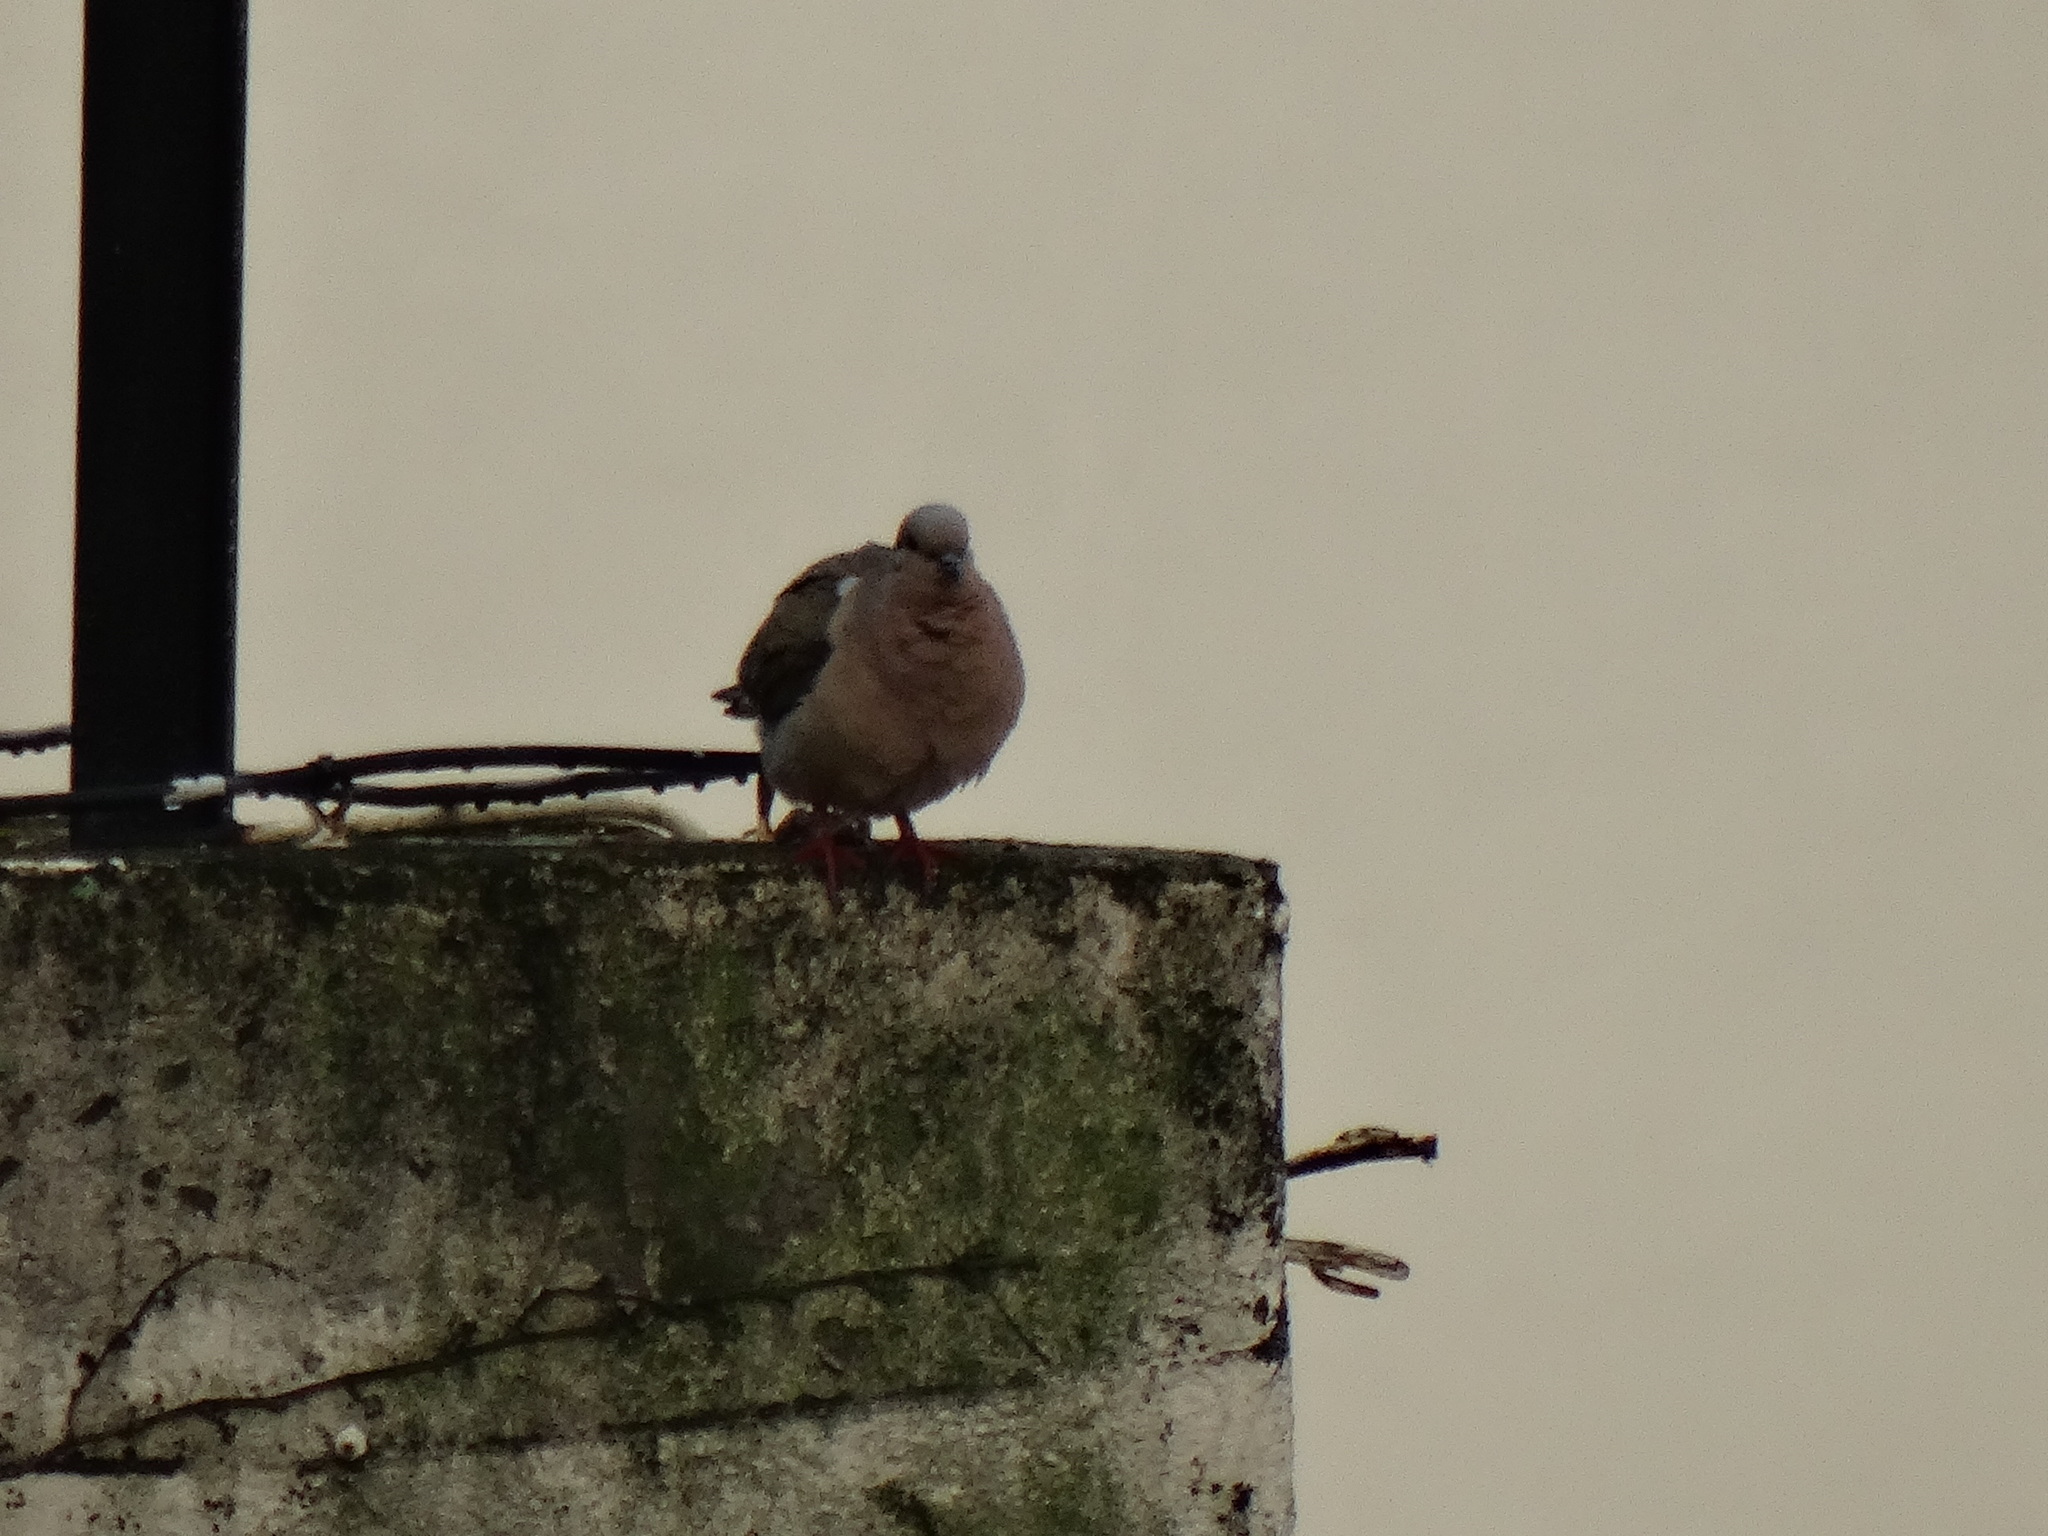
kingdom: Animalia
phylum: Chordata
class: Aves
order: Columbiformes
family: Columbidae
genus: Zenaida
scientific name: Zenaida auriculata
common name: Eared dove
